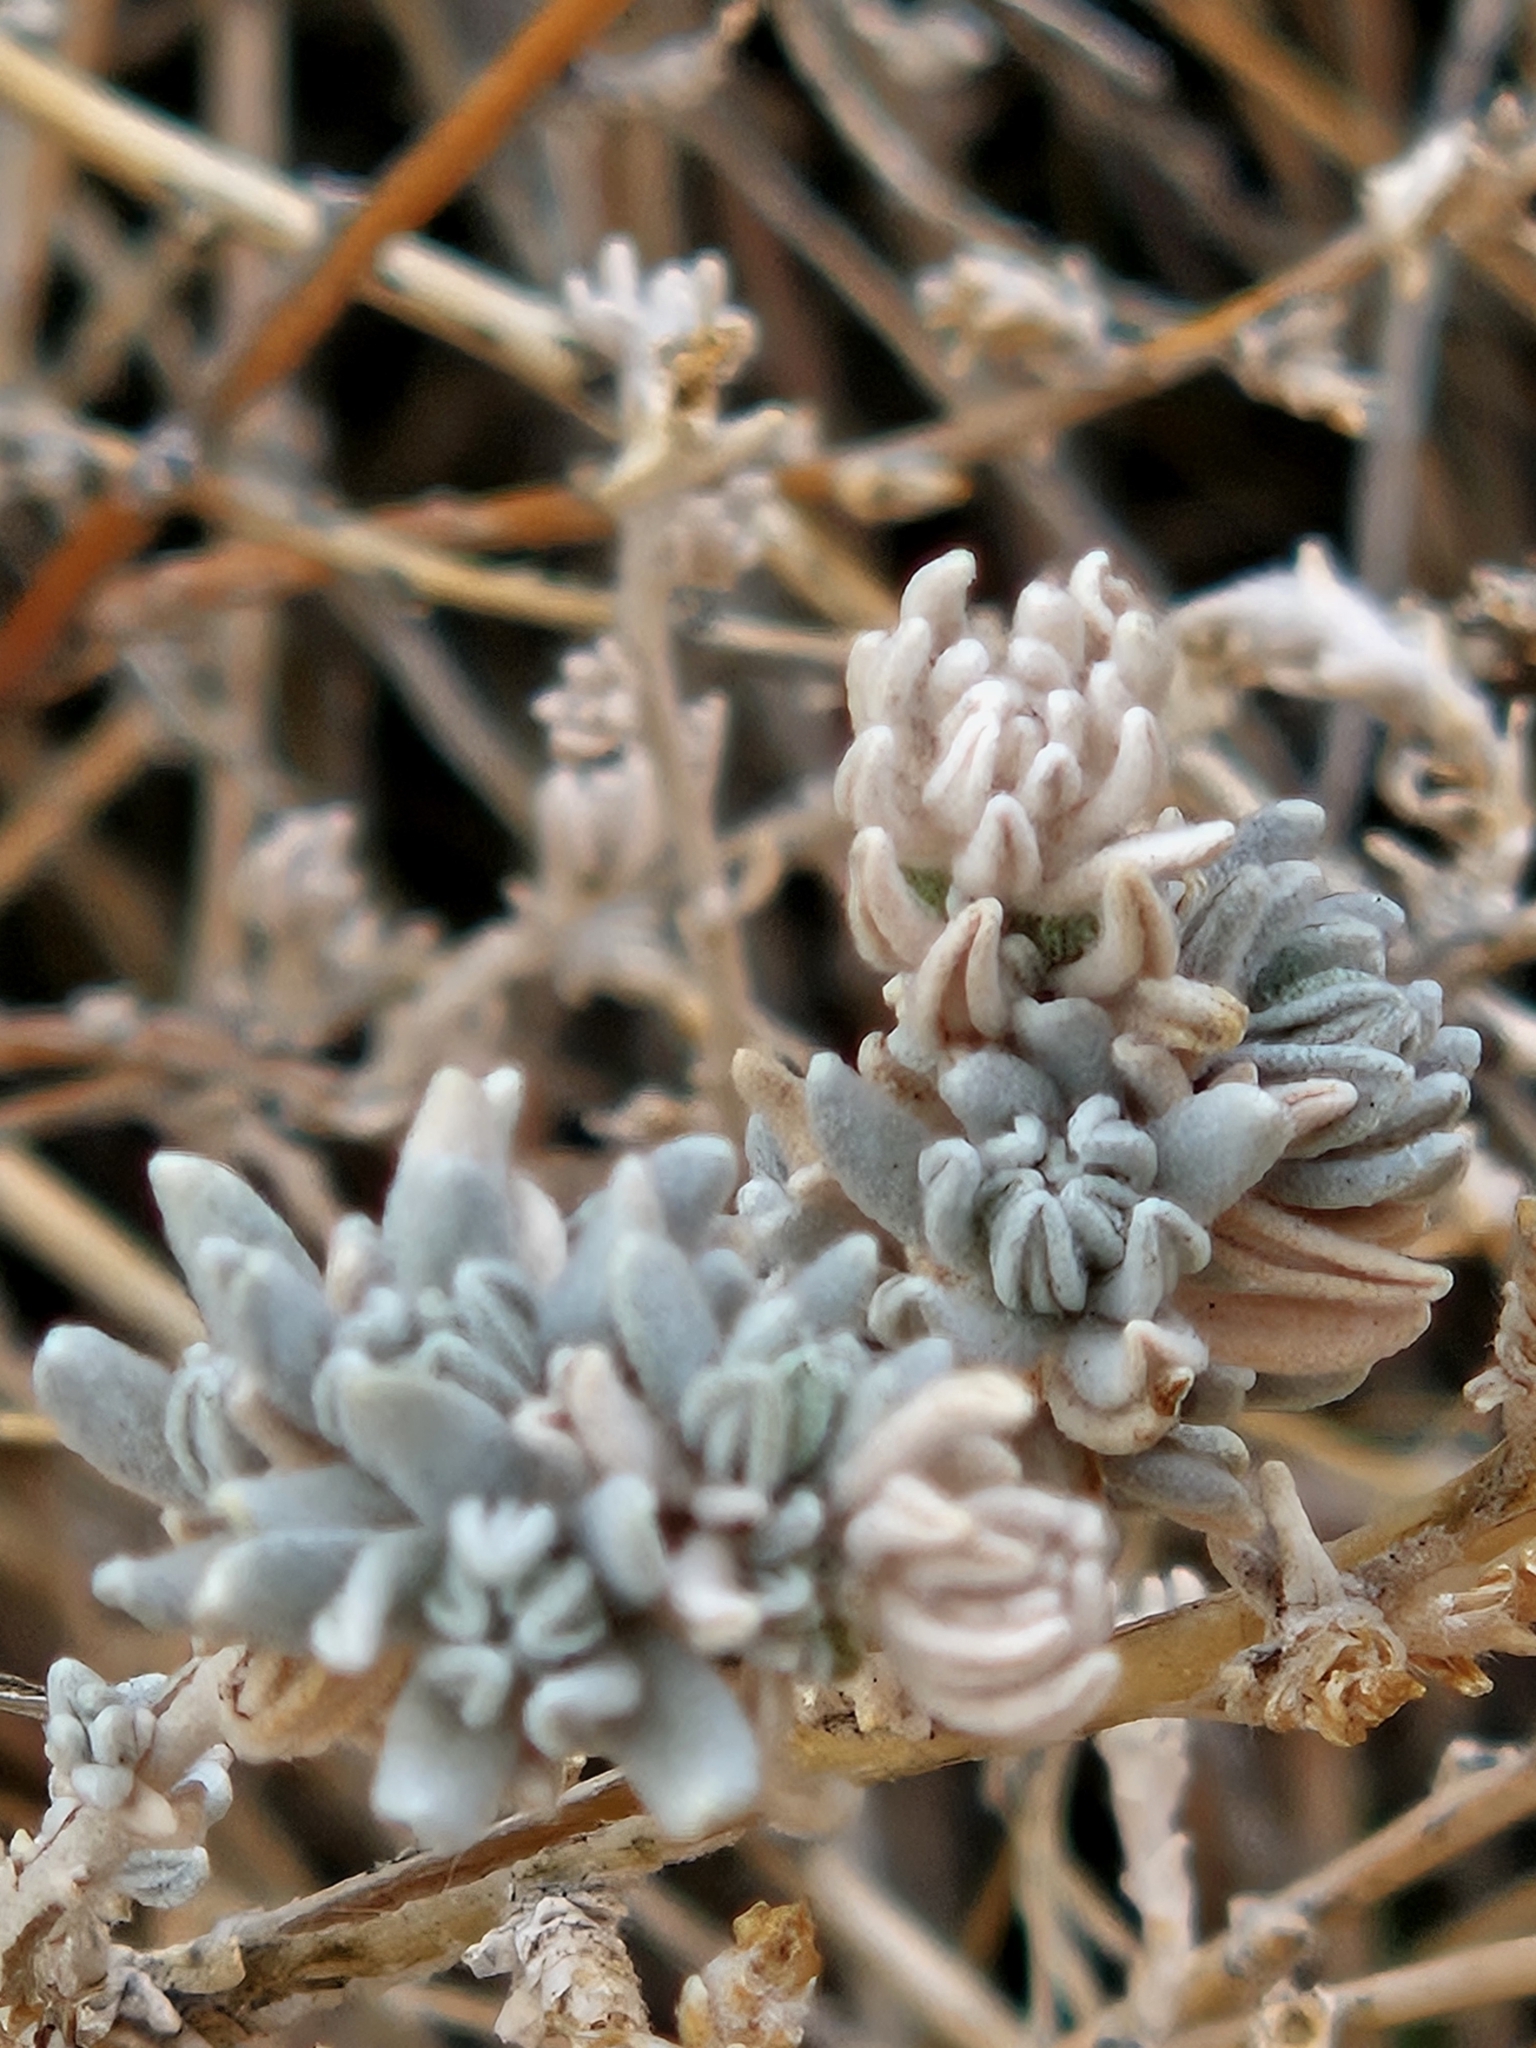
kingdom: Plantae
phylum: Tracheophyta
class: Magnoliopsida
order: Caryophyllales
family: Amaranthaceae
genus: Krascheninnikovia
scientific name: Krascheninnikovia lanata
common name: Winterfat
